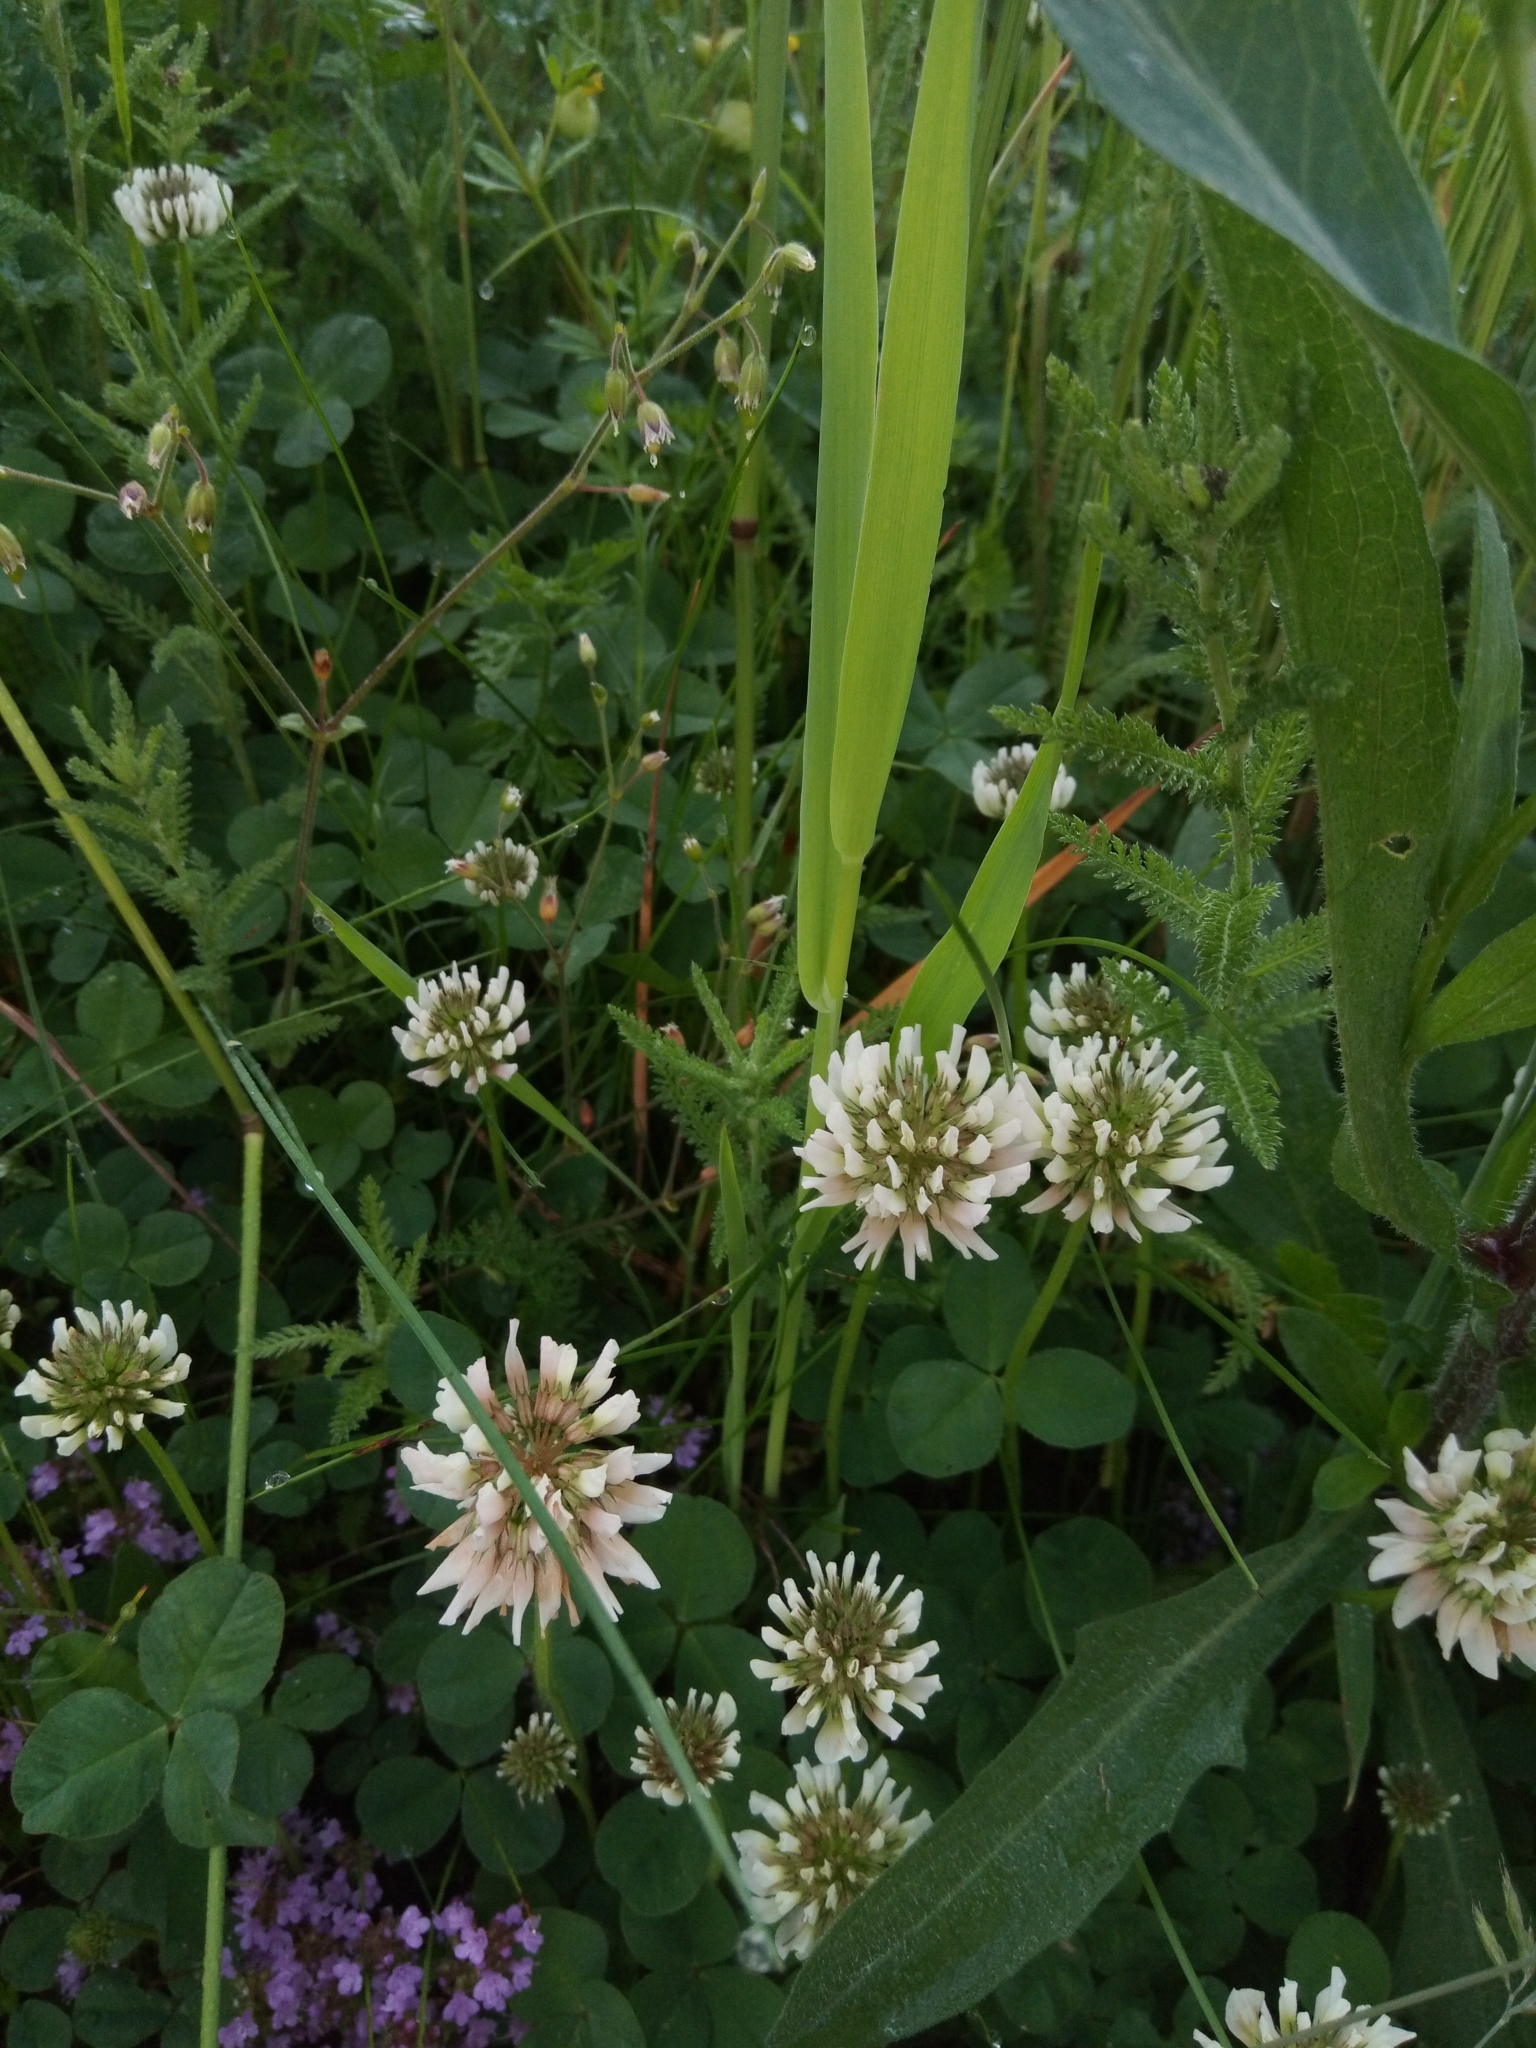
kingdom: Plantae
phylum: Tracheophyta
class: Magnoliopsida
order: Fabales
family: Fabaceae
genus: Trifolium
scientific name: Trifolium repens
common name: White clover
